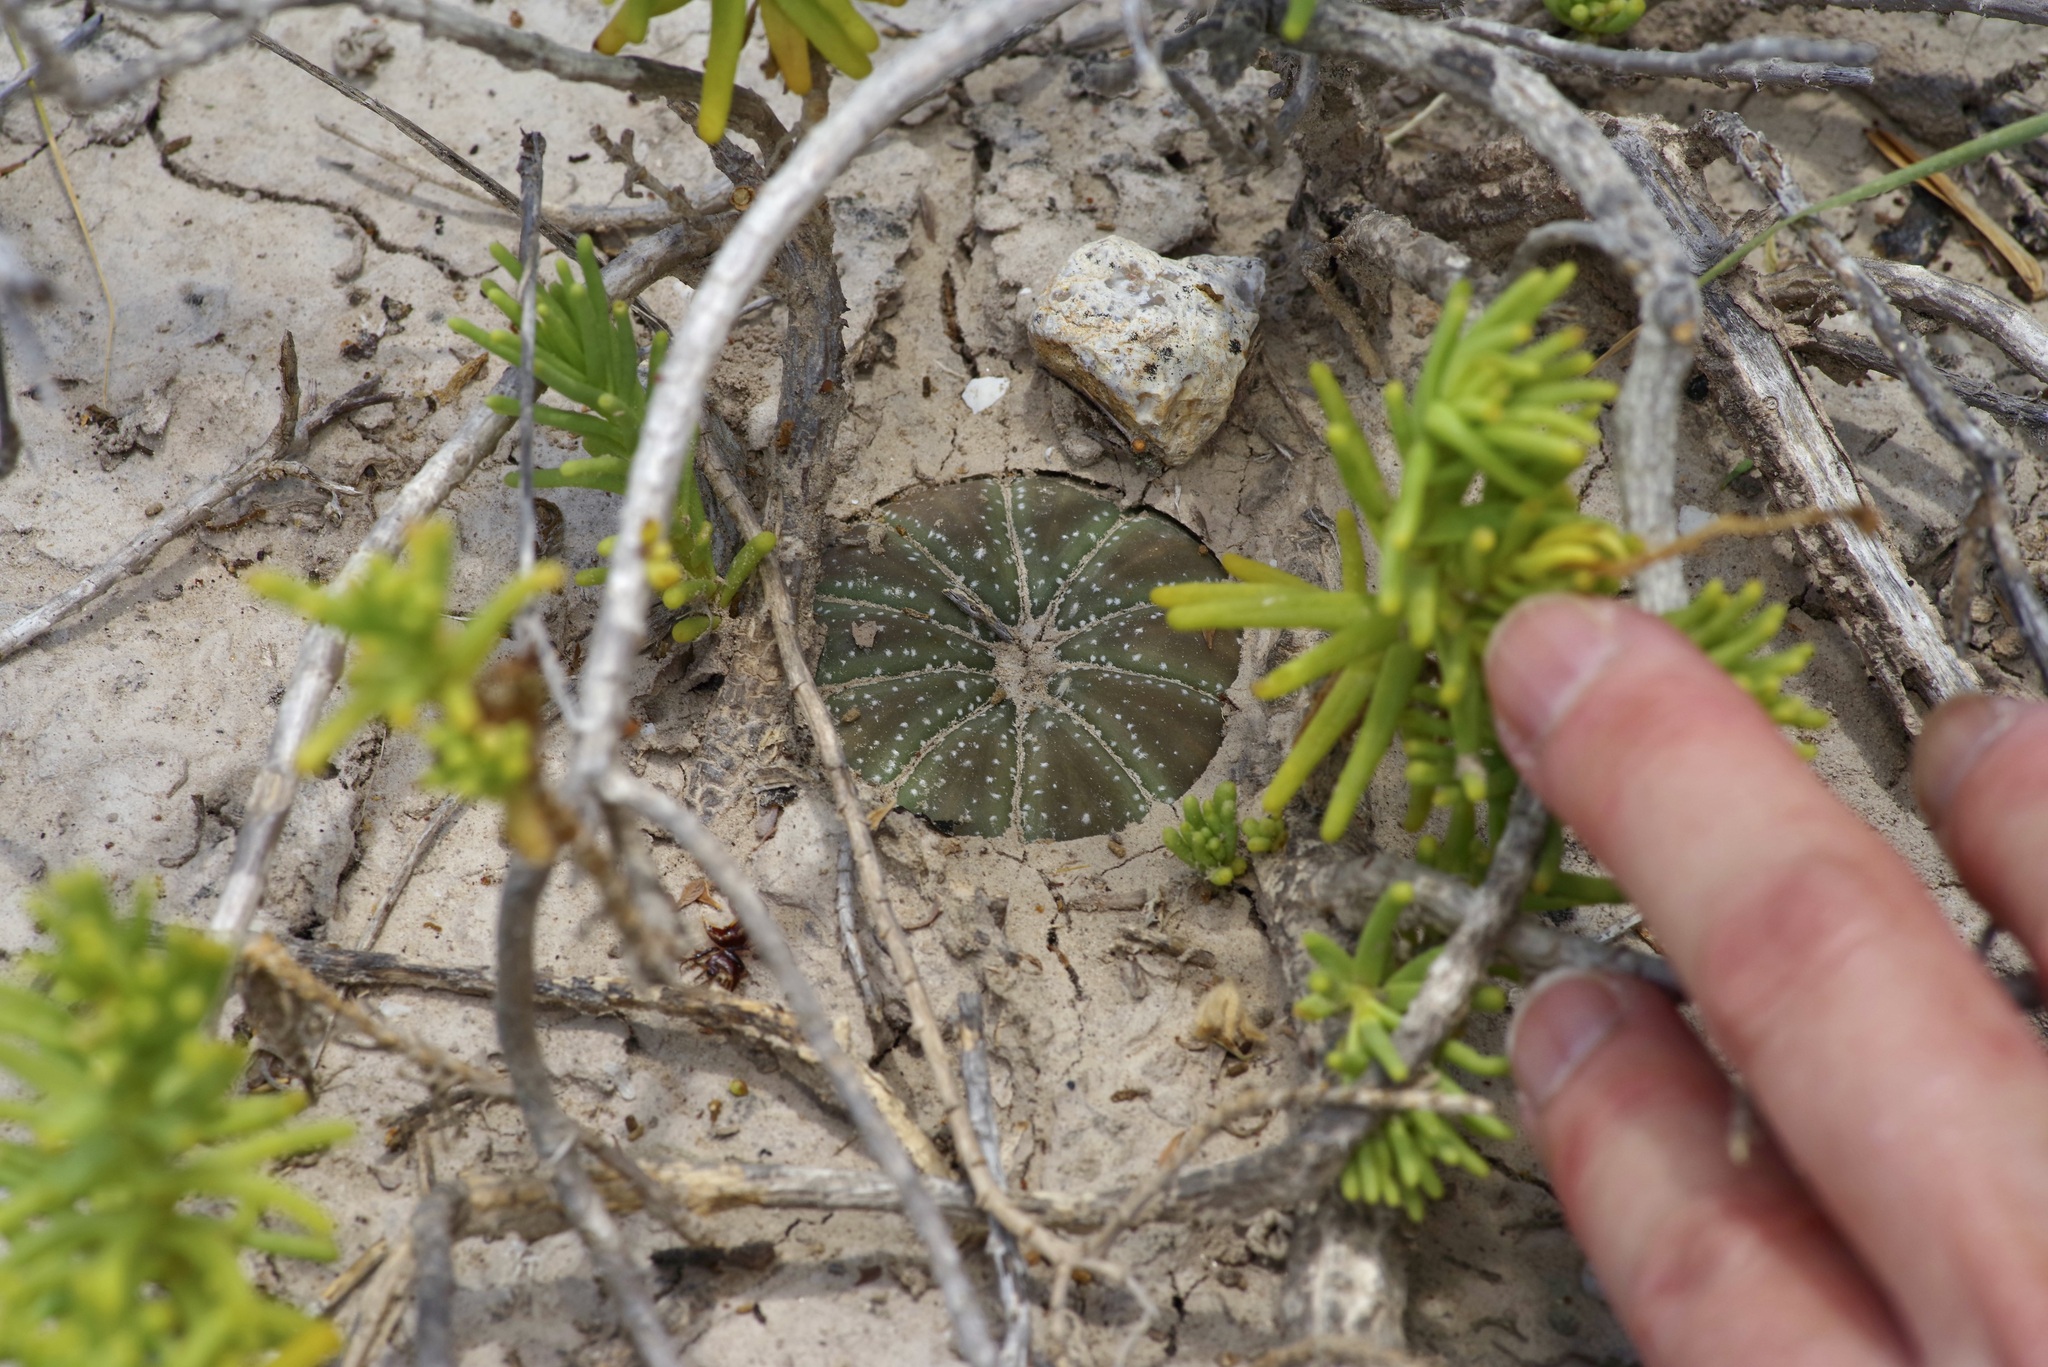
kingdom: Plantae
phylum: Tracheophyta
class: Magnoliopsida
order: Caryophyllales
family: Cactaceae
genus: Astrophytum
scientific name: Astrophytum asterias
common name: Star cactus
